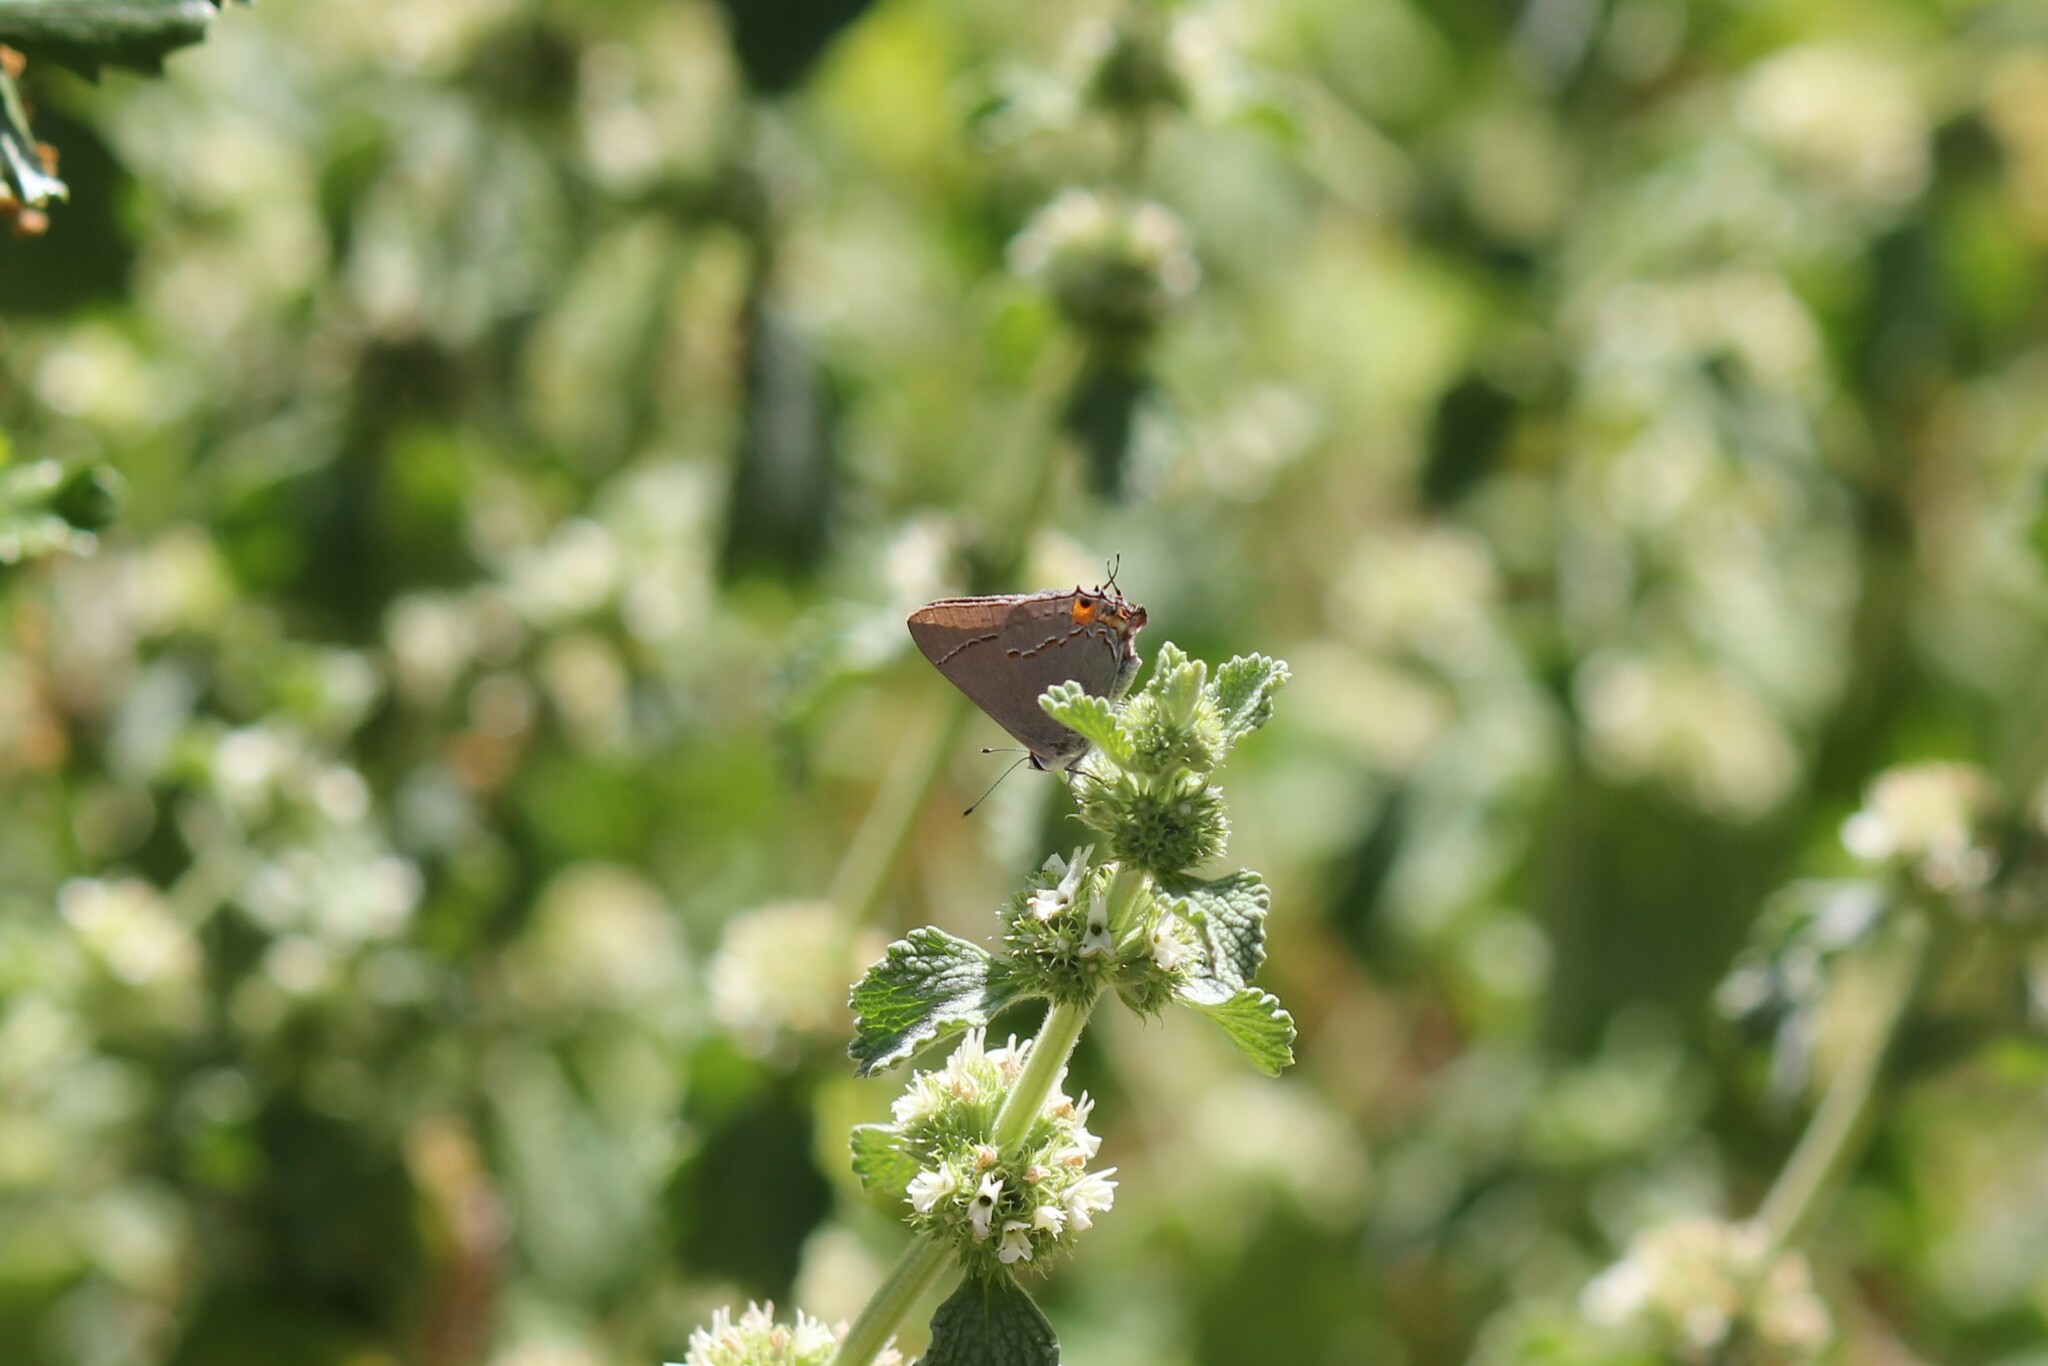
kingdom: Animalia
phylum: Arthropoda
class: Insecta
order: Lepidoptera
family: Lycaenidae
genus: Strymon
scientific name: Strymon melinus
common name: Gray hairstreak
